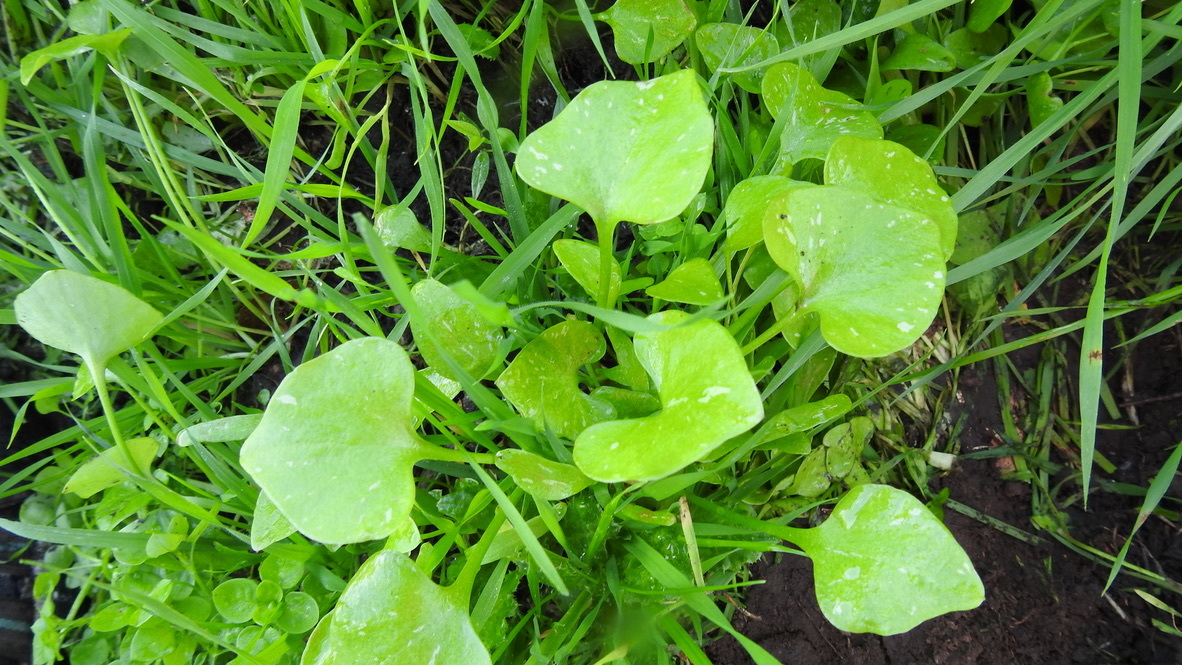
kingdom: Plantae
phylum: Tracheophyta
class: Magnoliopsida
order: Caryophyllales
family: Montiaceae
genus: Claytonia
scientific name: Claytonia perfoliata
